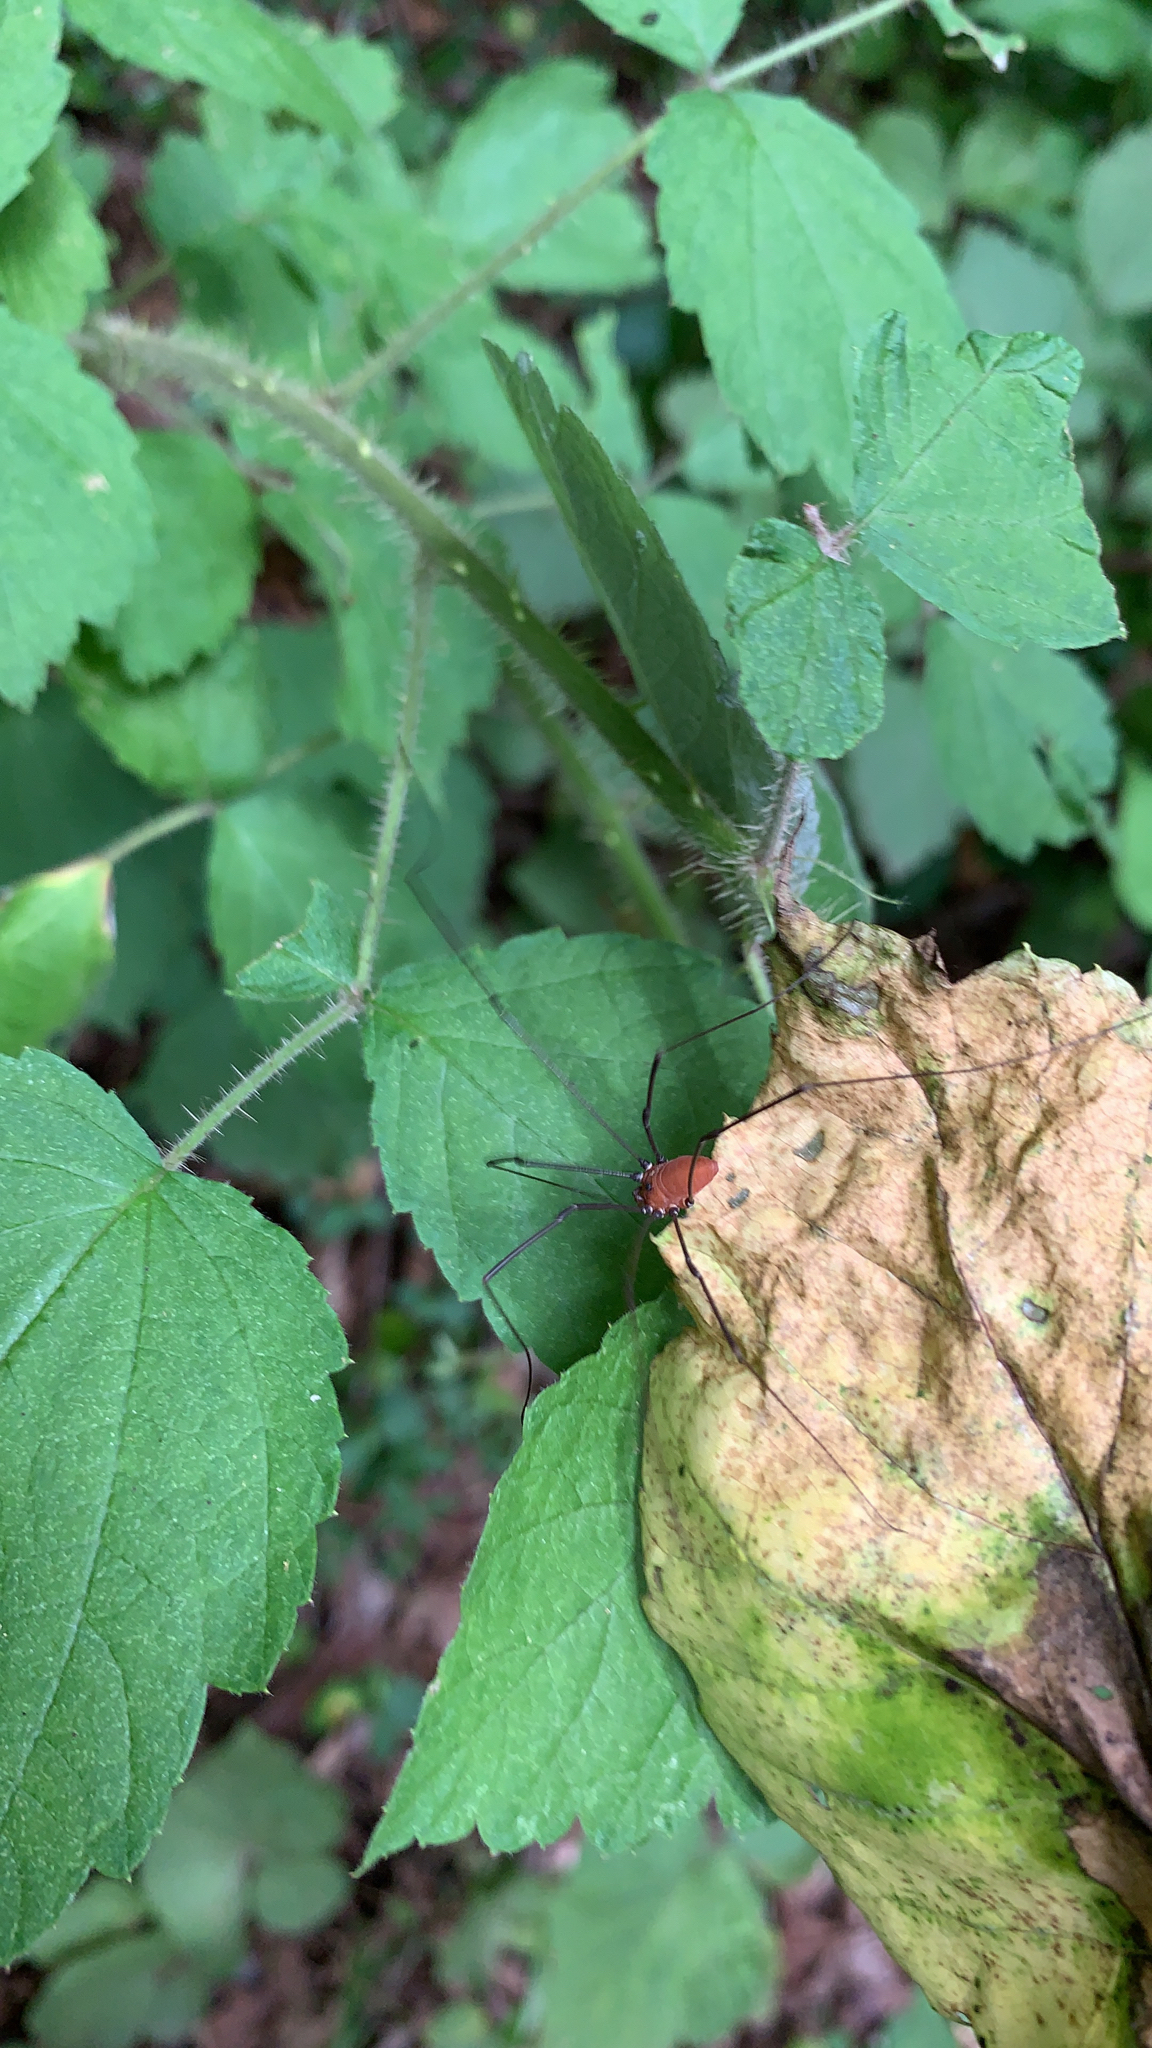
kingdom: Animalia
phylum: Arthropoda
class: Arachnida
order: Opiliones
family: Sclerosomatidae
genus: Leiobunum
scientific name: Leiobunum vittatum
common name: Eastern harvestman
